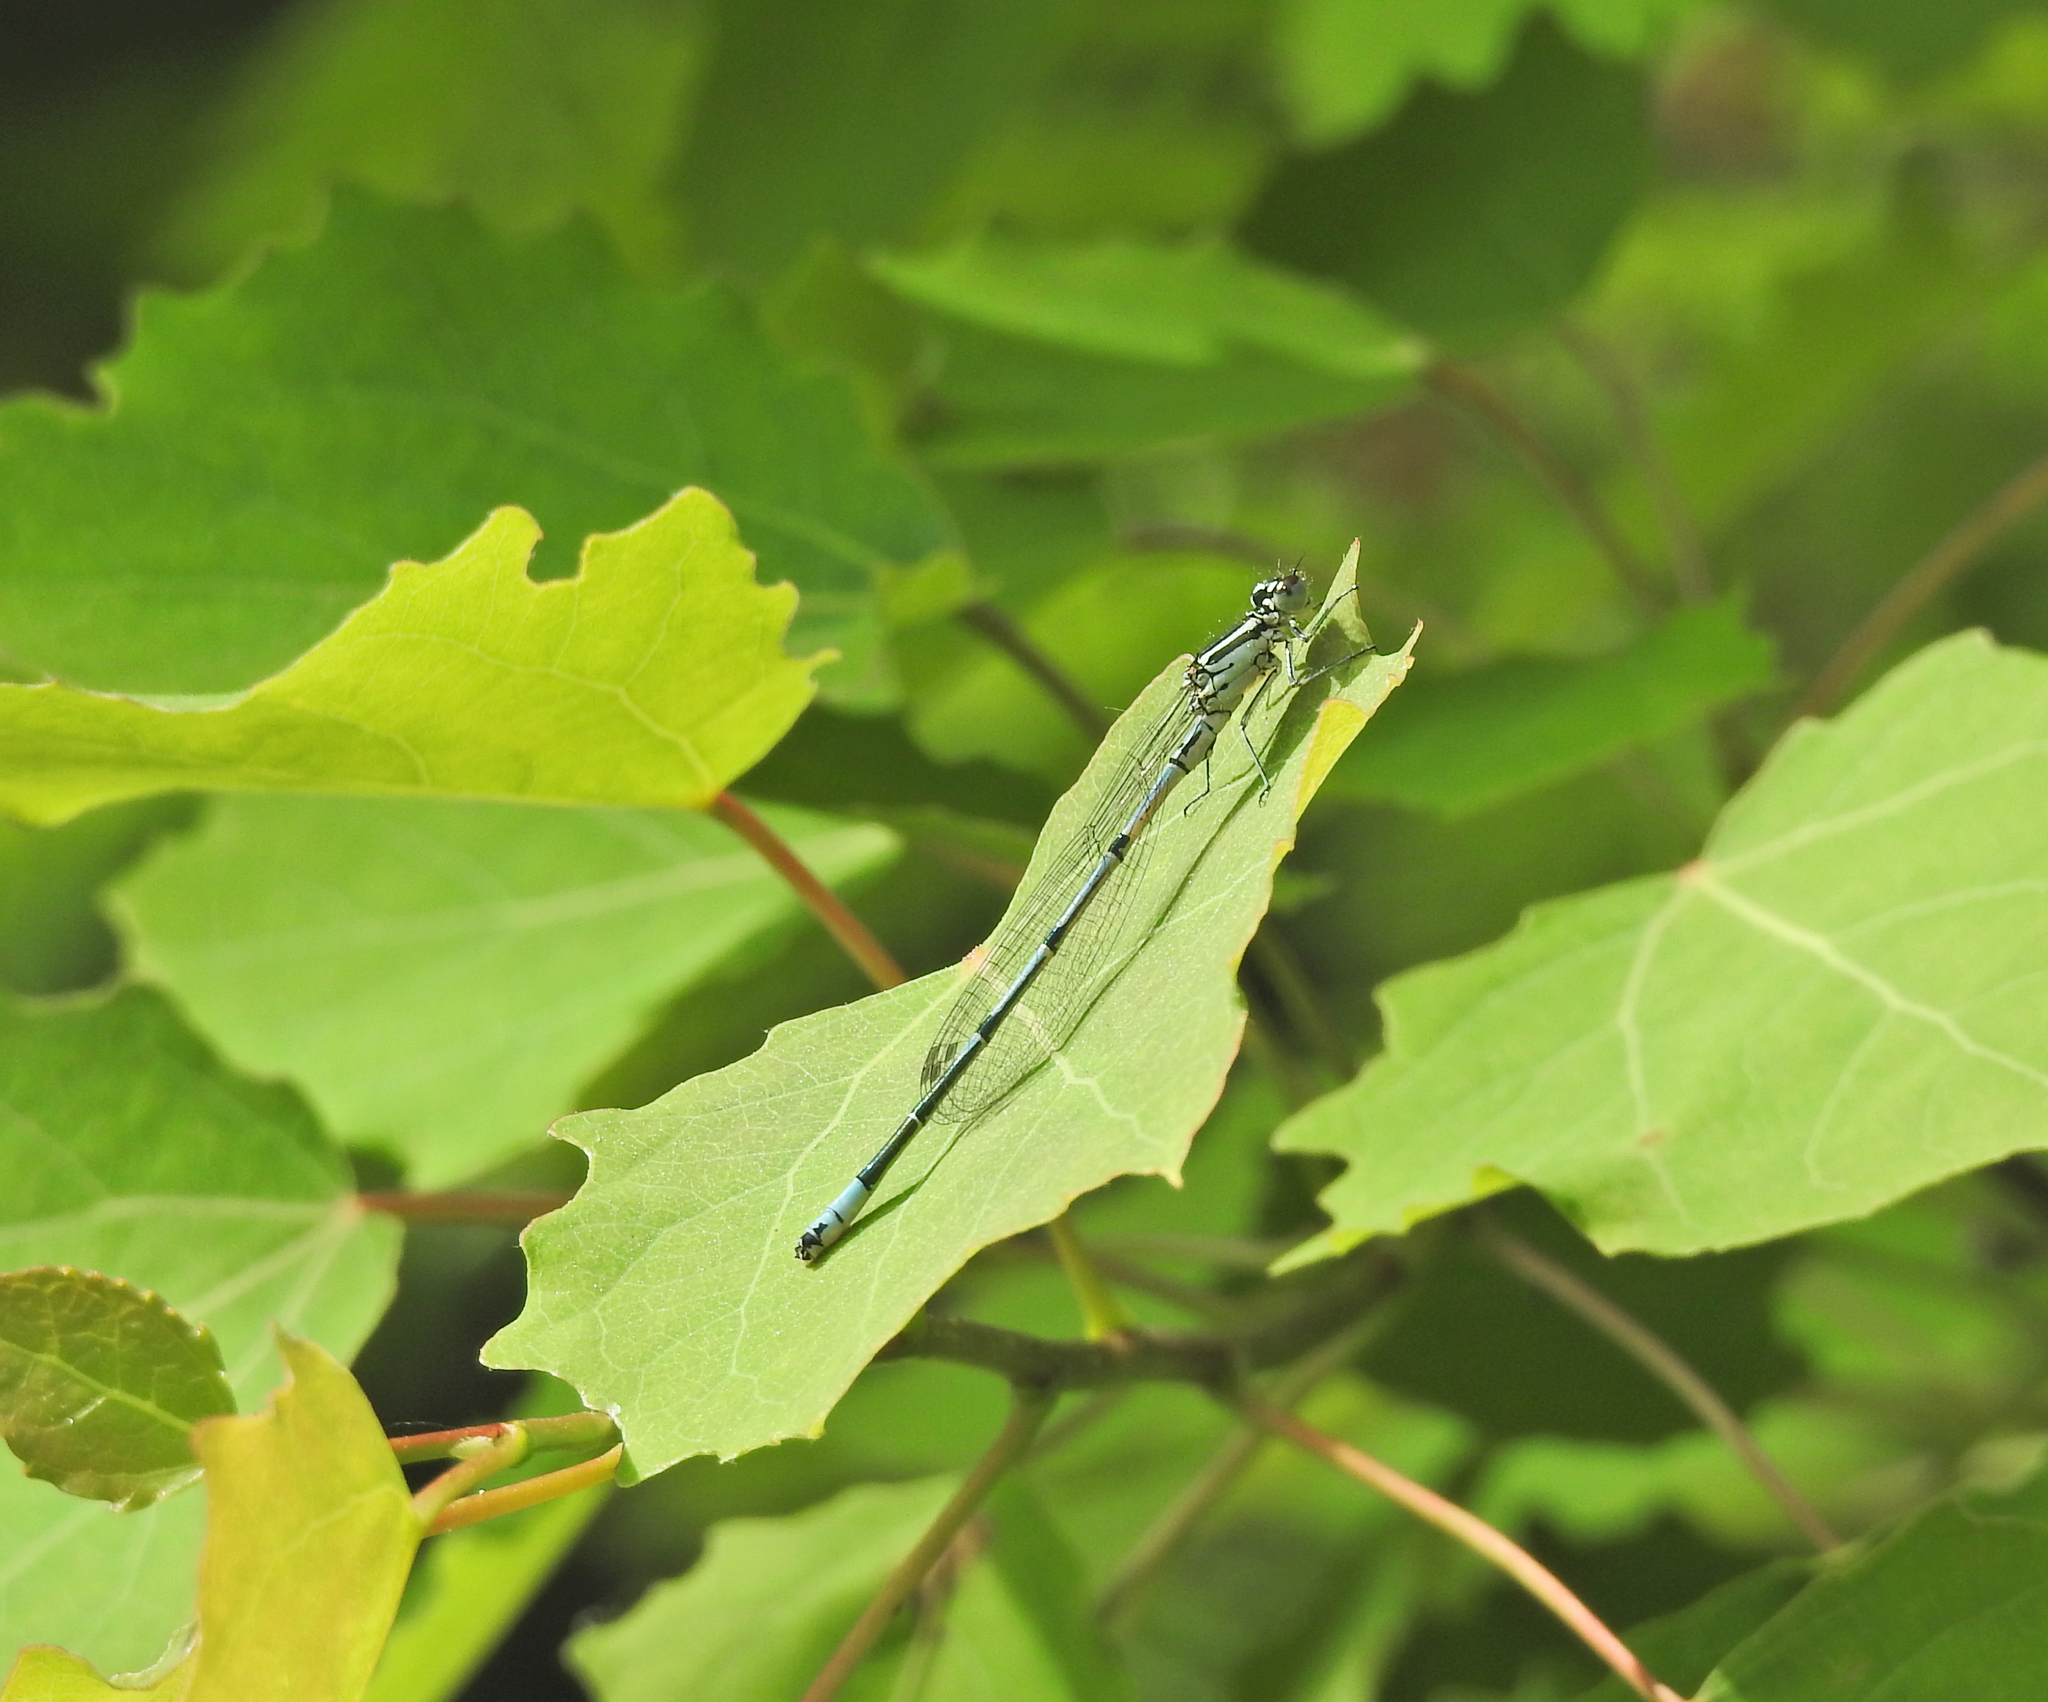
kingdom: Animalia
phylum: Arthropoda
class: Insecta
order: Odonata
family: Coenagrionidae
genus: Coenagrion
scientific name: Coenagrion puella
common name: Azure damselfly
